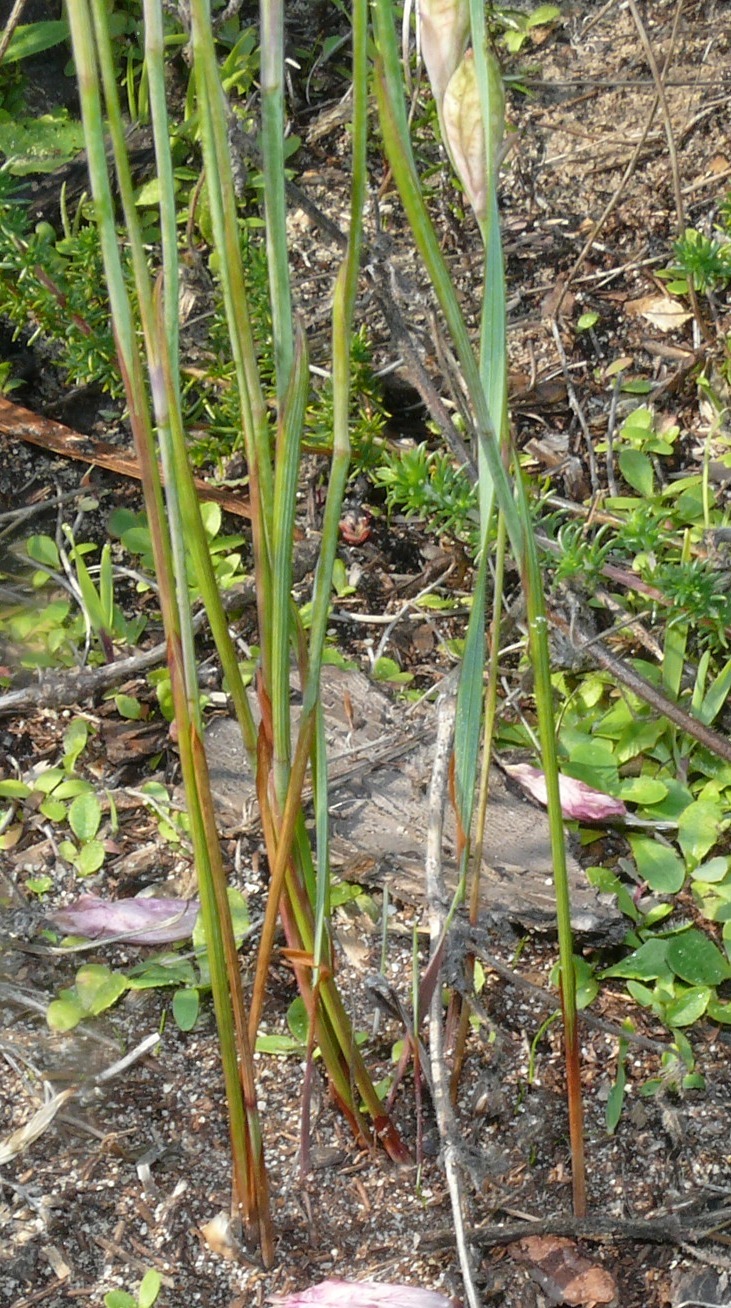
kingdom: Plantae
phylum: Tracheophyta
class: Liliopsida
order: Asparagales
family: Iridaceae
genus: Gladiolus
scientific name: Gladiolus brevifolius
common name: March pypie
